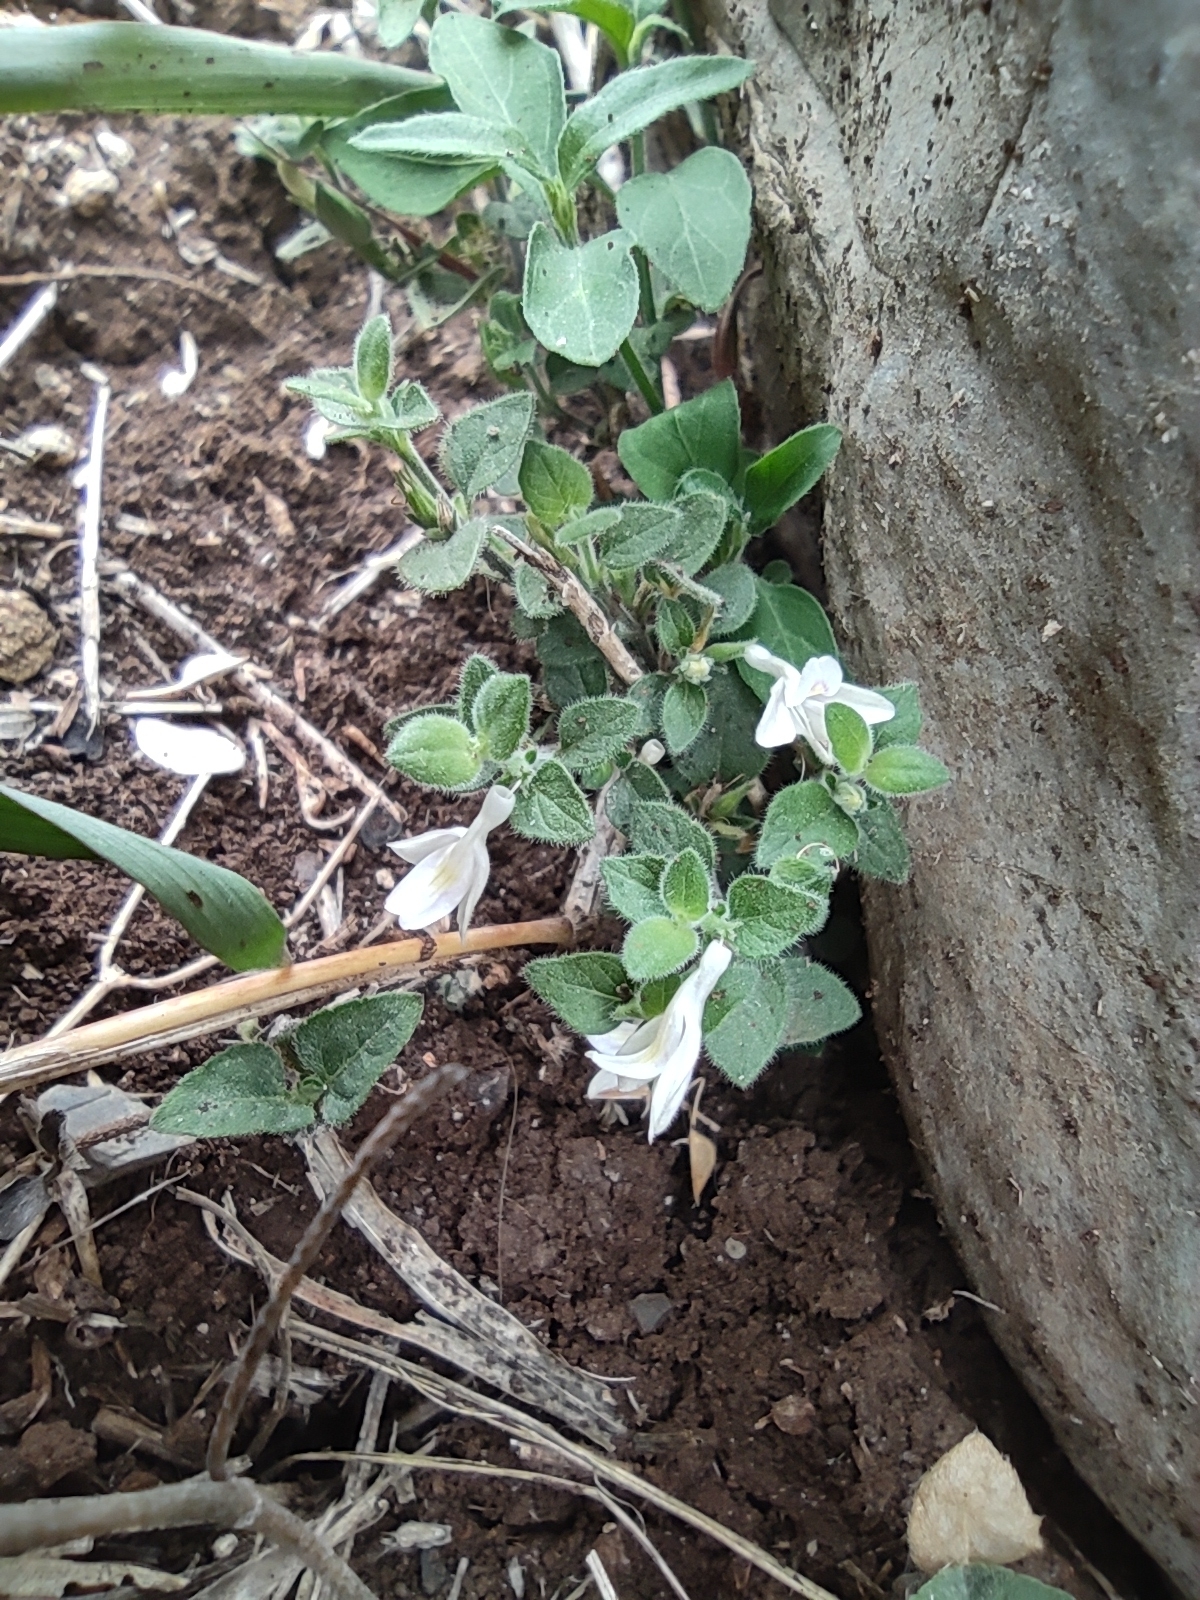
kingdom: Plantae
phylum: Tracheophyta
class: Magnoliopsida
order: Lamiales
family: Acanthaceae
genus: Carlowrightia
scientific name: Carlowrightia texana
